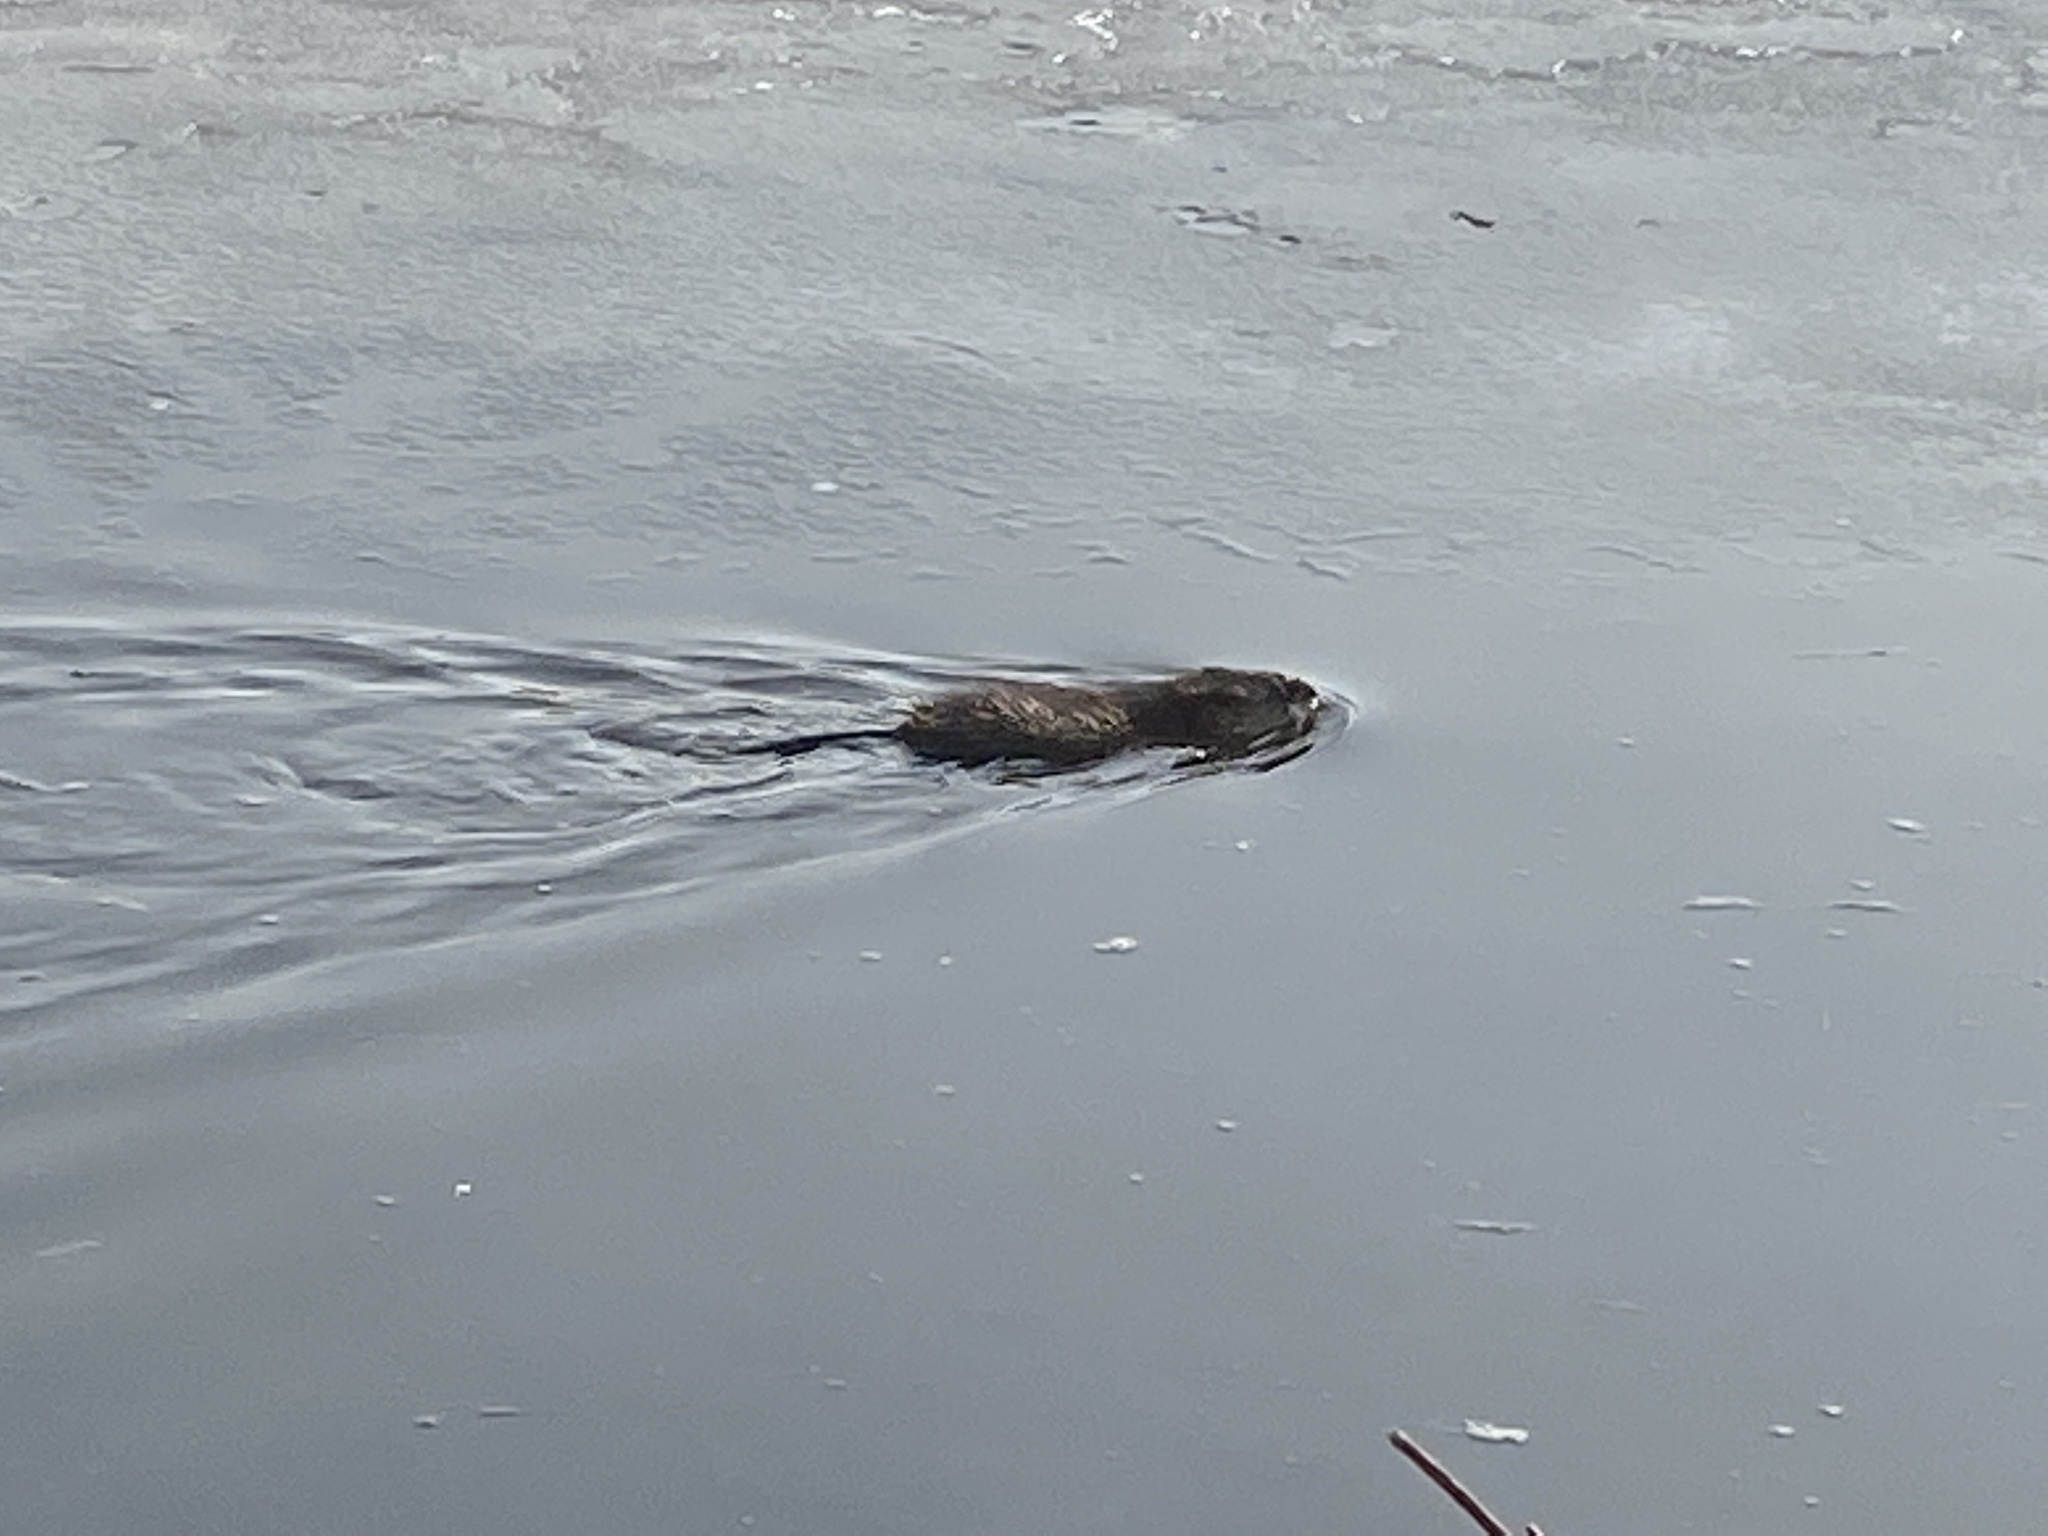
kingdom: Animalia
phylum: Chordata
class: Mammalia
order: Rodentia
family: Cricetidae
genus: Ondatra
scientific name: Ondatra zibethicus
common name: Muskrat
